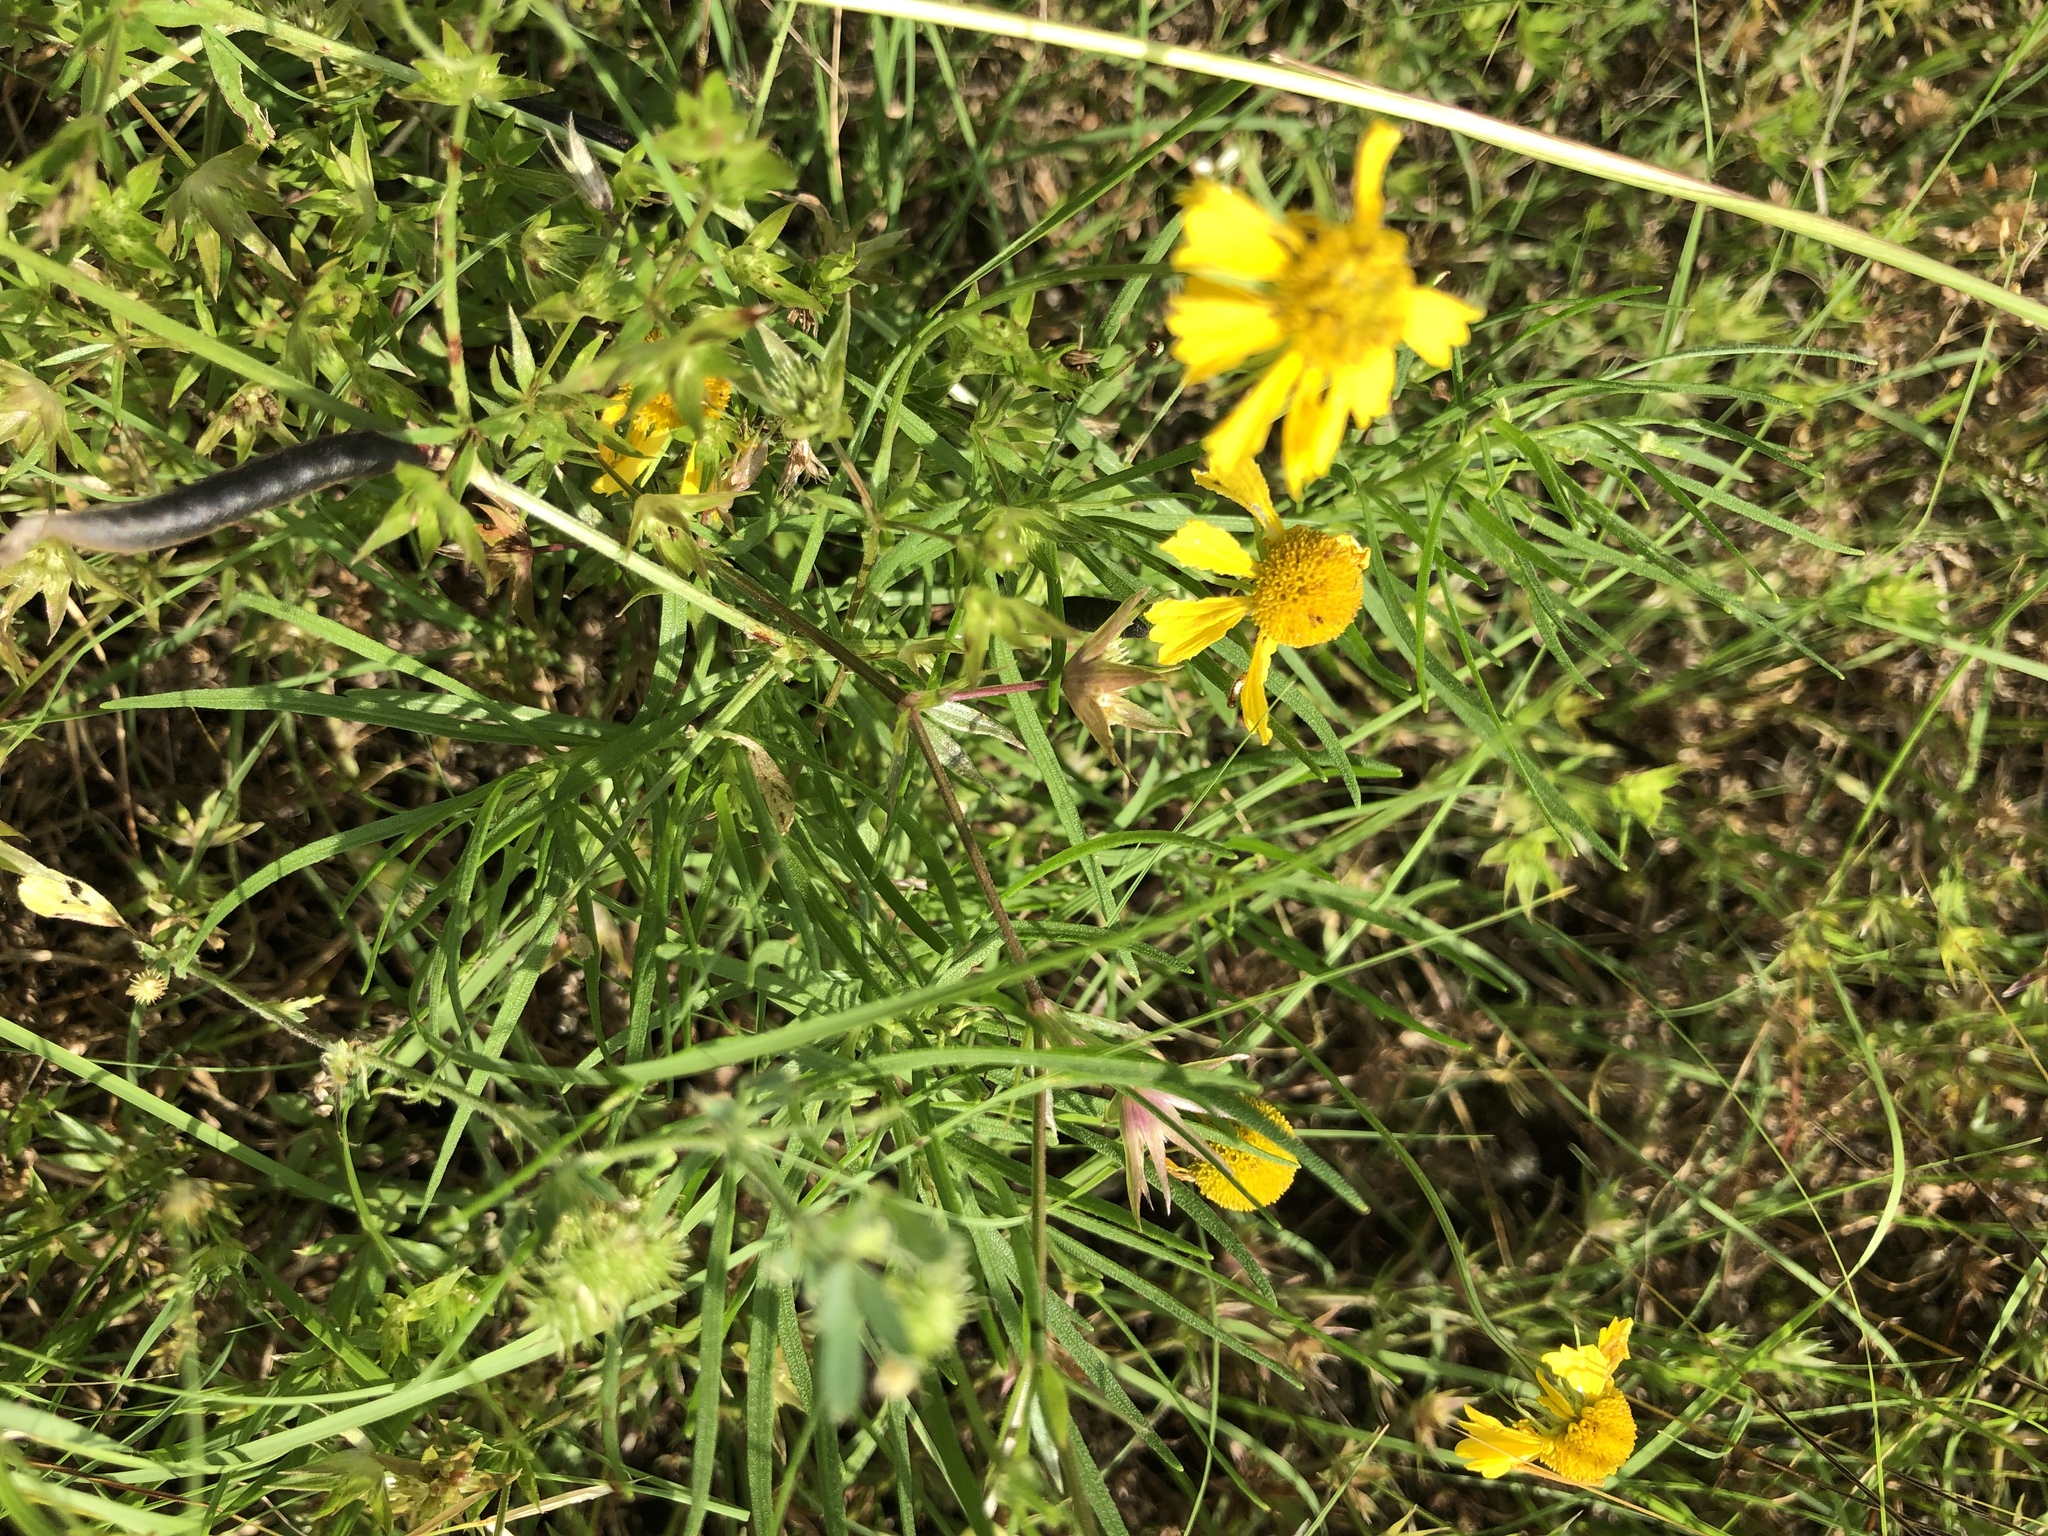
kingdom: Plantae
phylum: Tracheophyta
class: Magnoliopsida
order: Asterales
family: Asteraceae
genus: Helenium
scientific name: Helenium amarum
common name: Bitter sneezeweed
